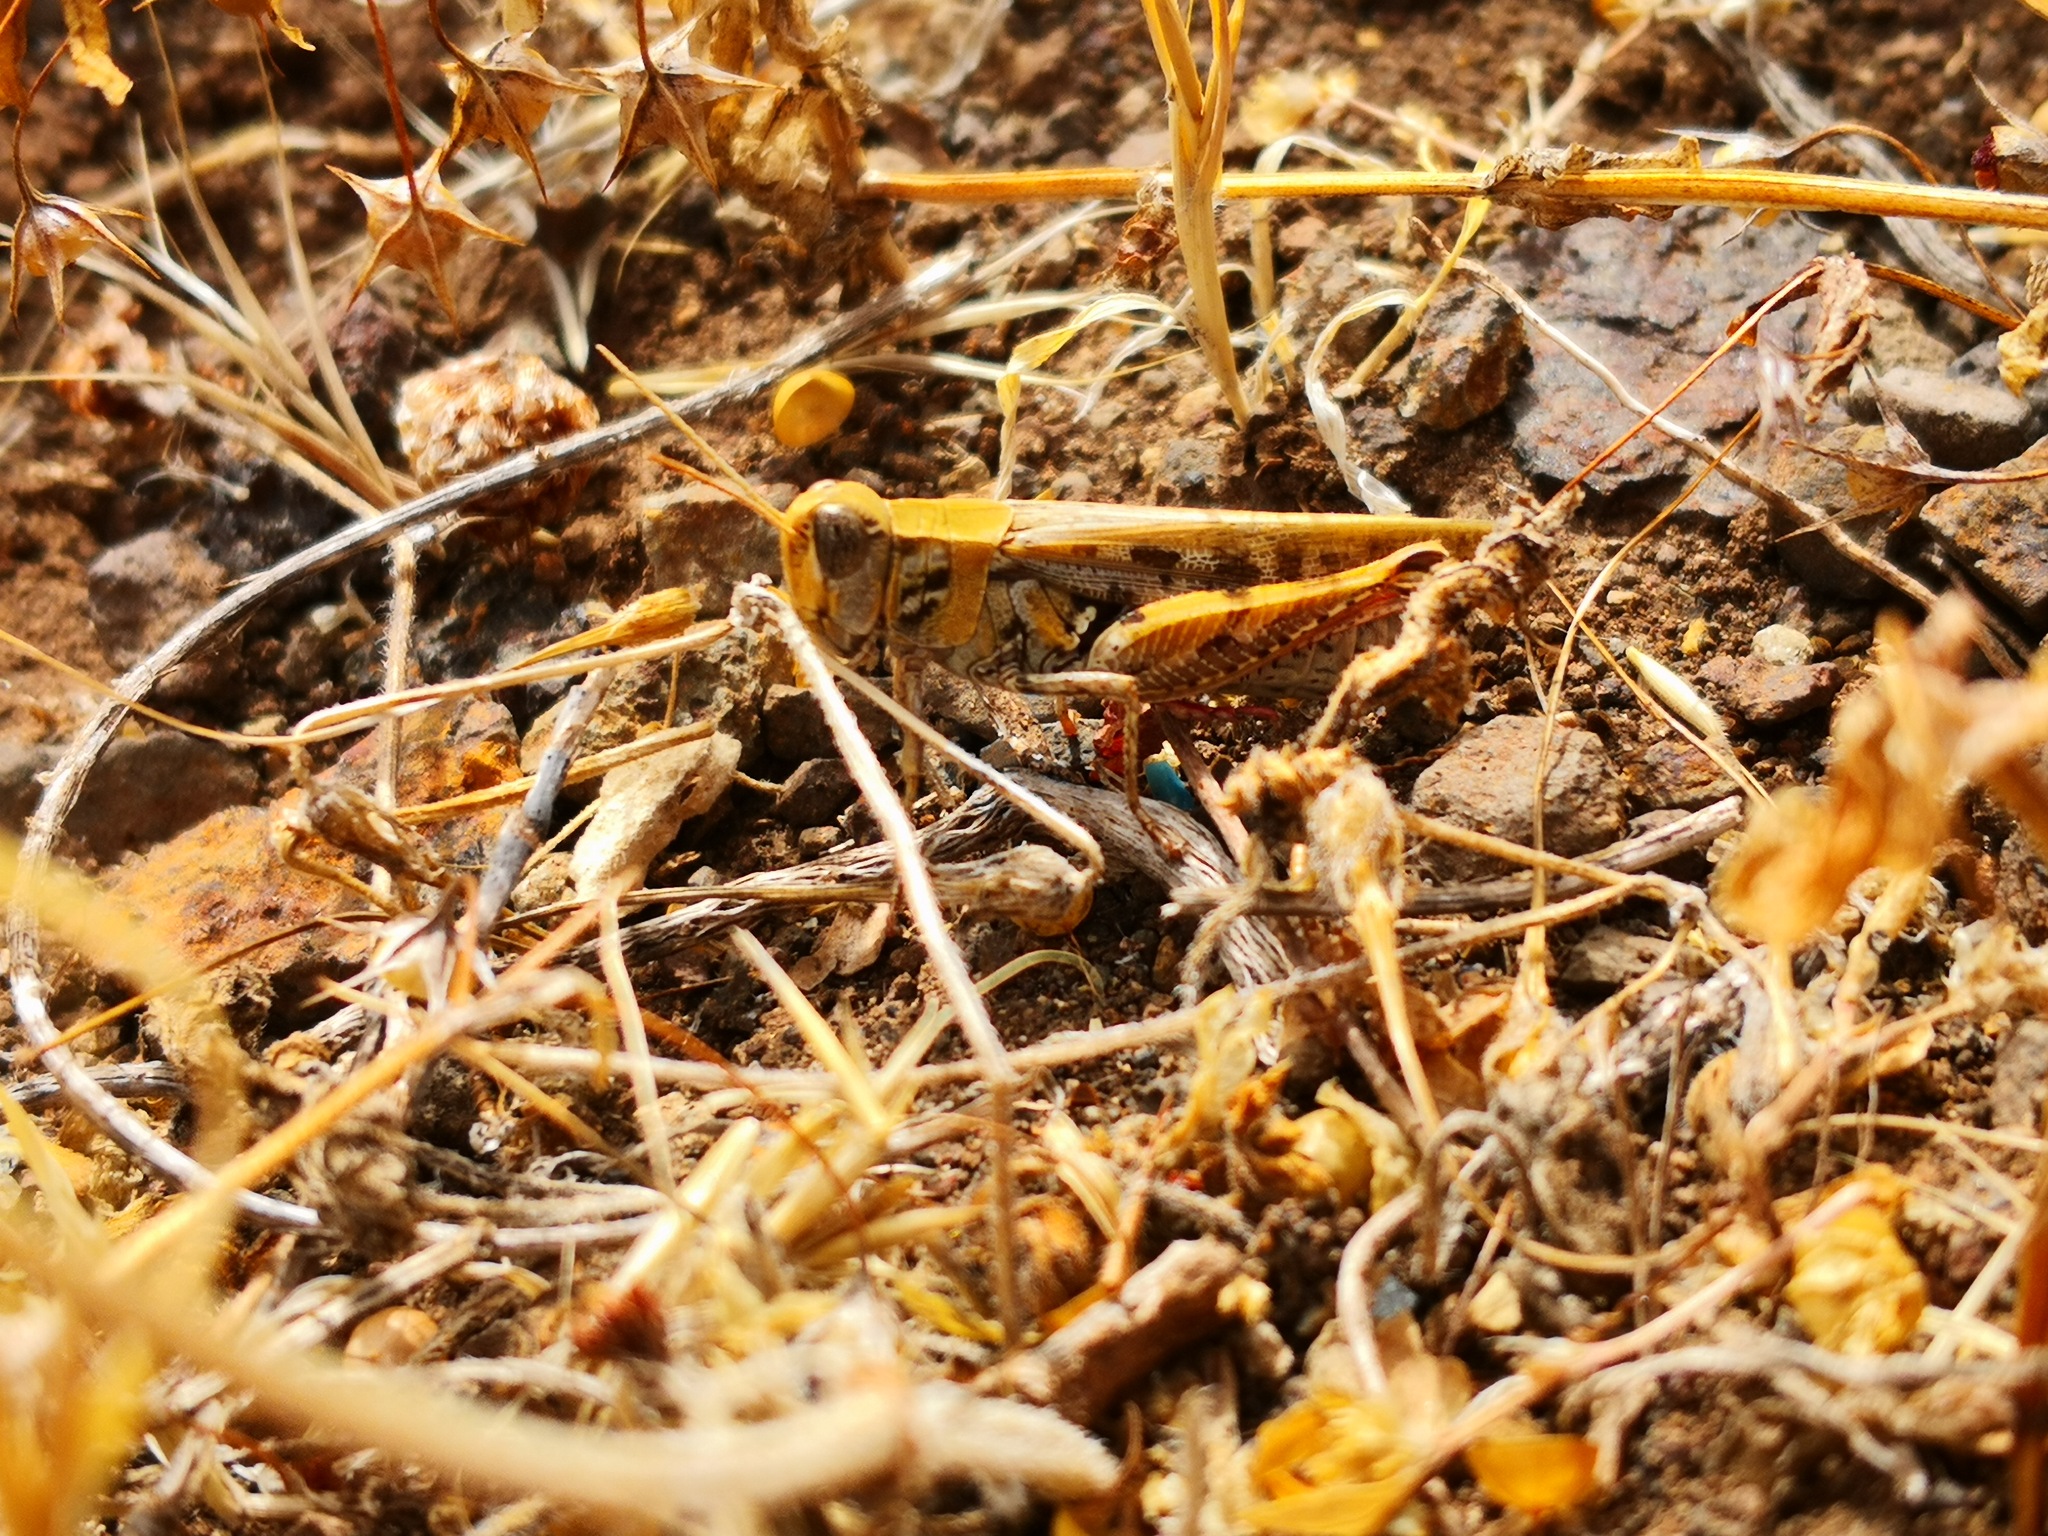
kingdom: Animalia
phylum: Arthropoda
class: Insecta
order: Orthoptera
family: Acrididae
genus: Calliptamus
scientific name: Calliptamus plebeius
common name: Canarian pincer grasshopper
